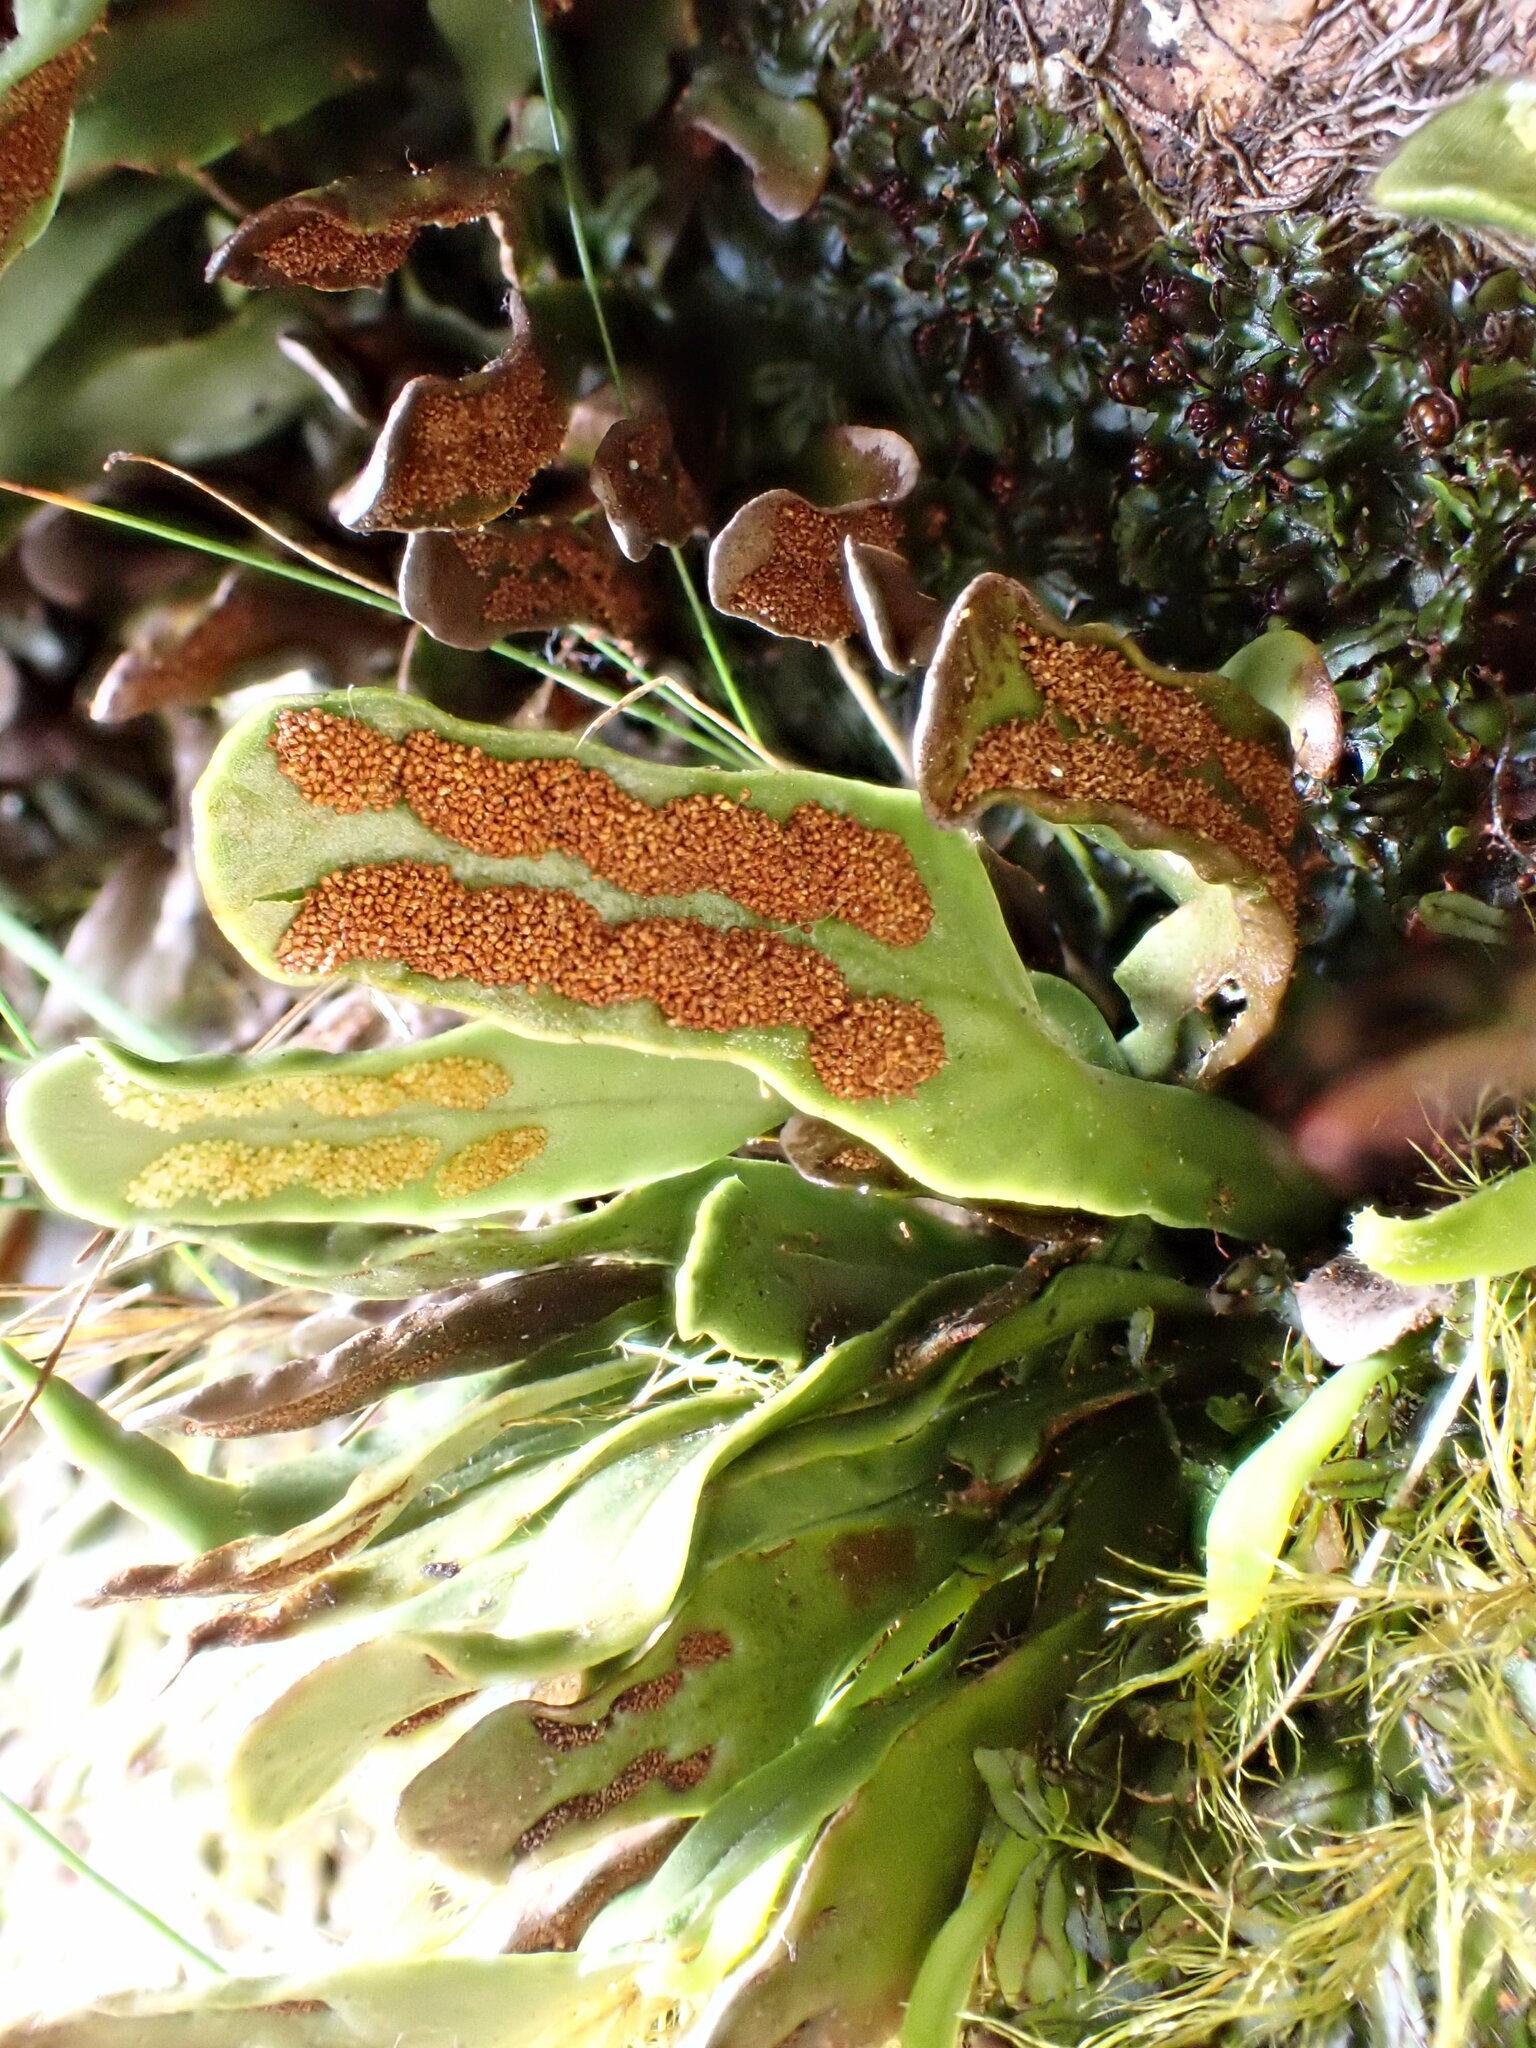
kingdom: Plantae
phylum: Tracheophyta
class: Polypodiopsida
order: Polypodiales
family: Polypodiaceae
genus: Notogrammitis
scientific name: Notogrammitis givenii
